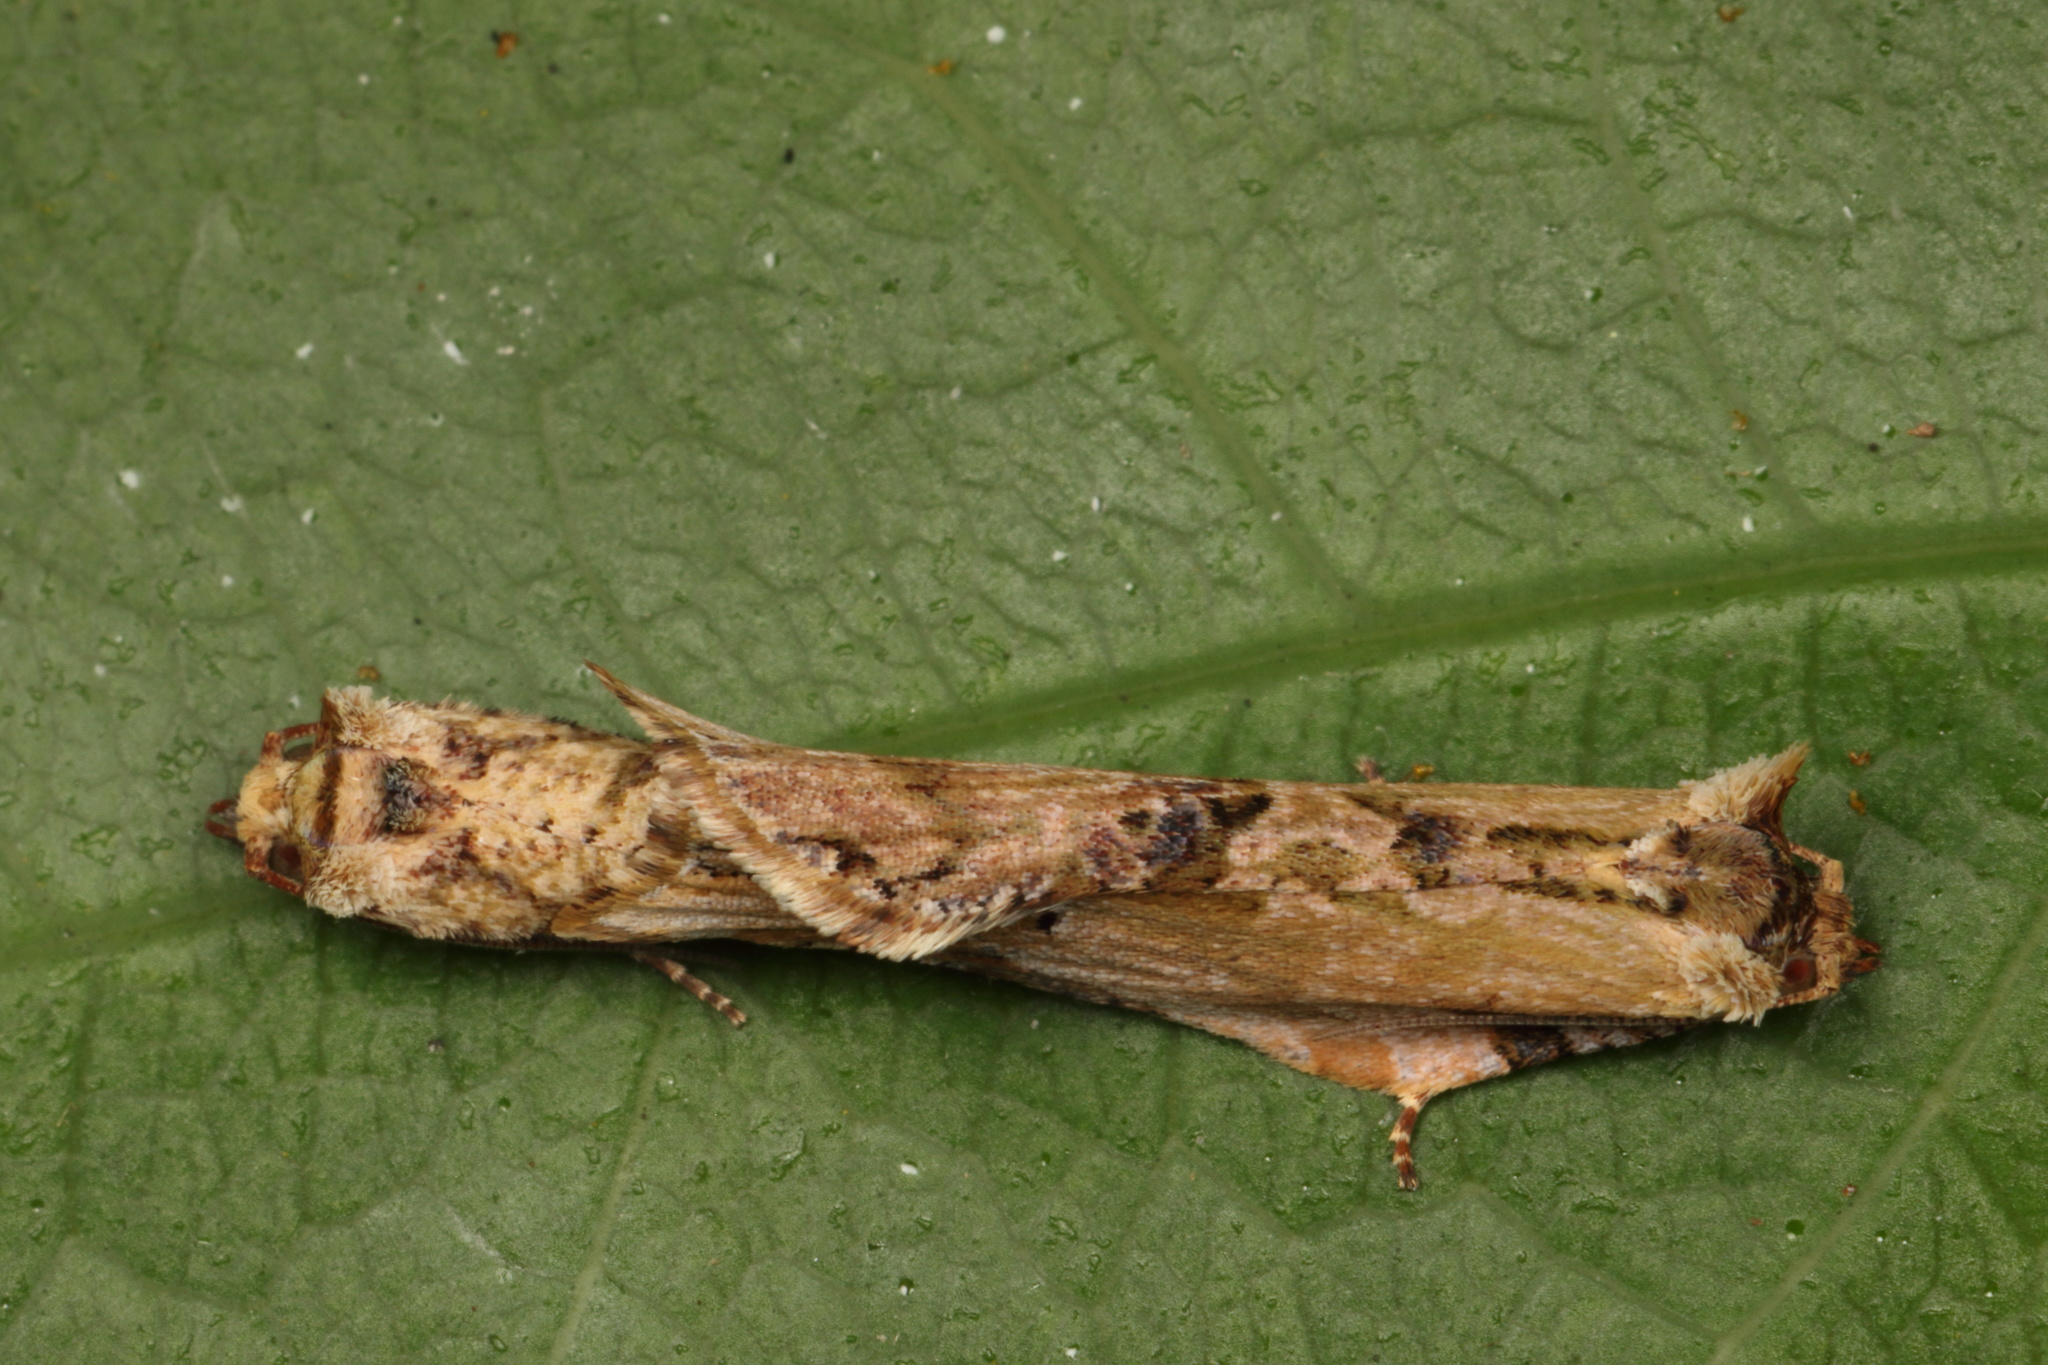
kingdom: Animalia
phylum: Arthropoda
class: Insecta
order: Lepidoptera
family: Tortricidae
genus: Epalxiphora
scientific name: Epalxiphora axenana
